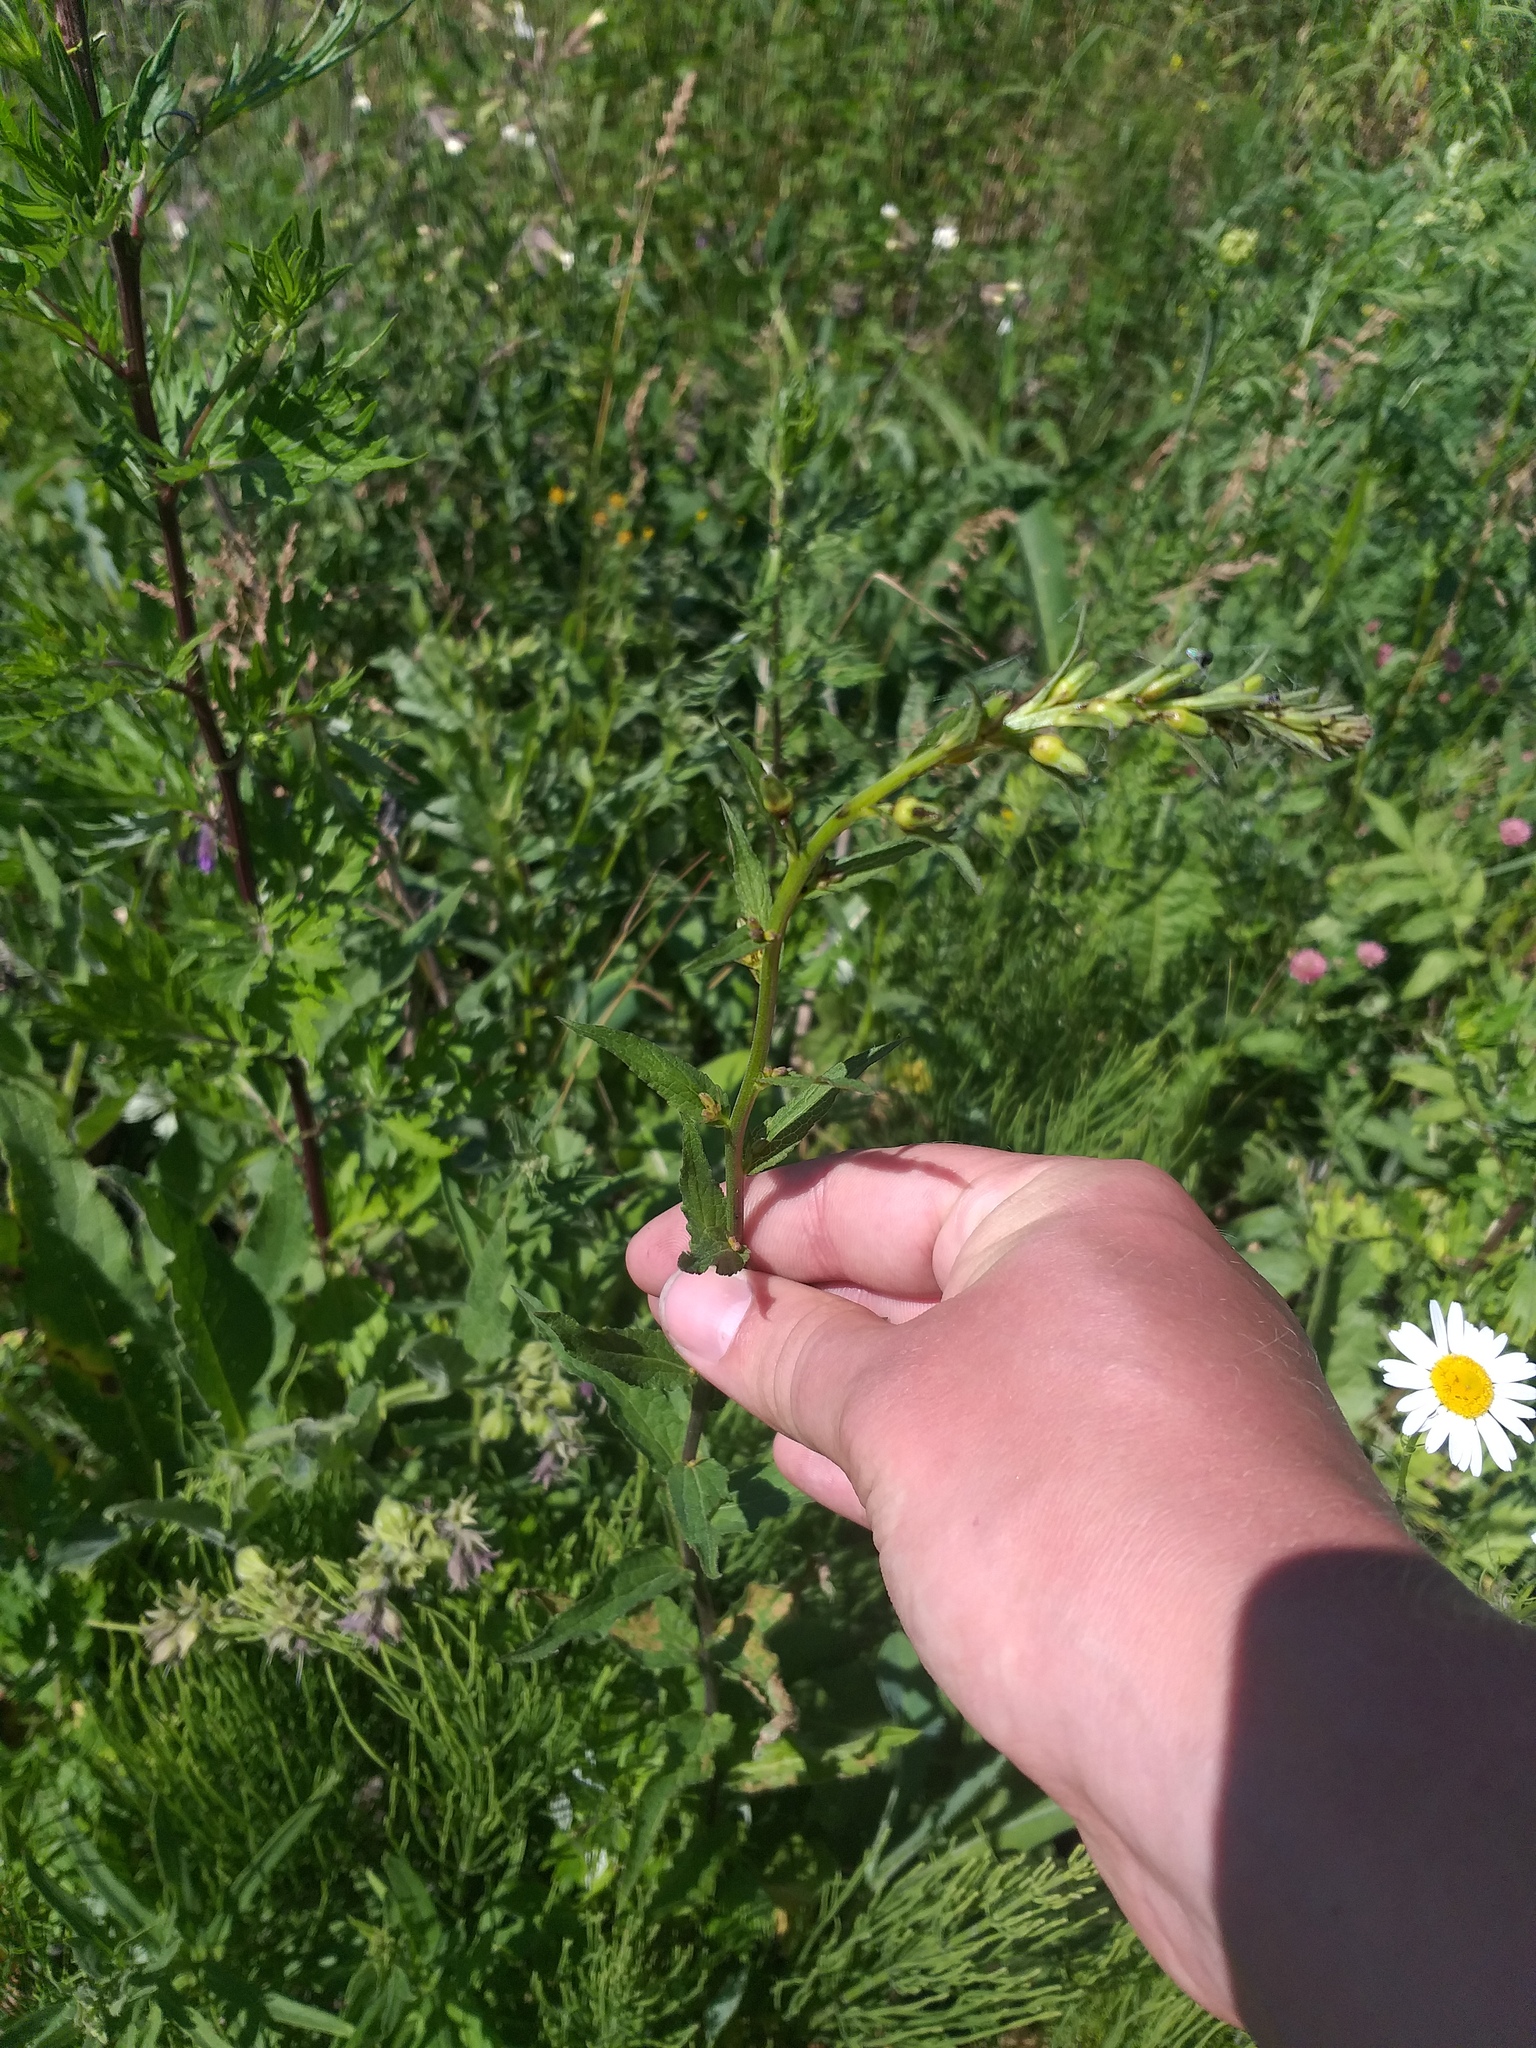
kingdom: Plantae
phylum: Tracheophyta
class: Magnoliopsida
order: Asterales
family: Campanulaceae
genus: Campanula
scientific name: Campanula rapunculoides
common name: Creeping bellflower
